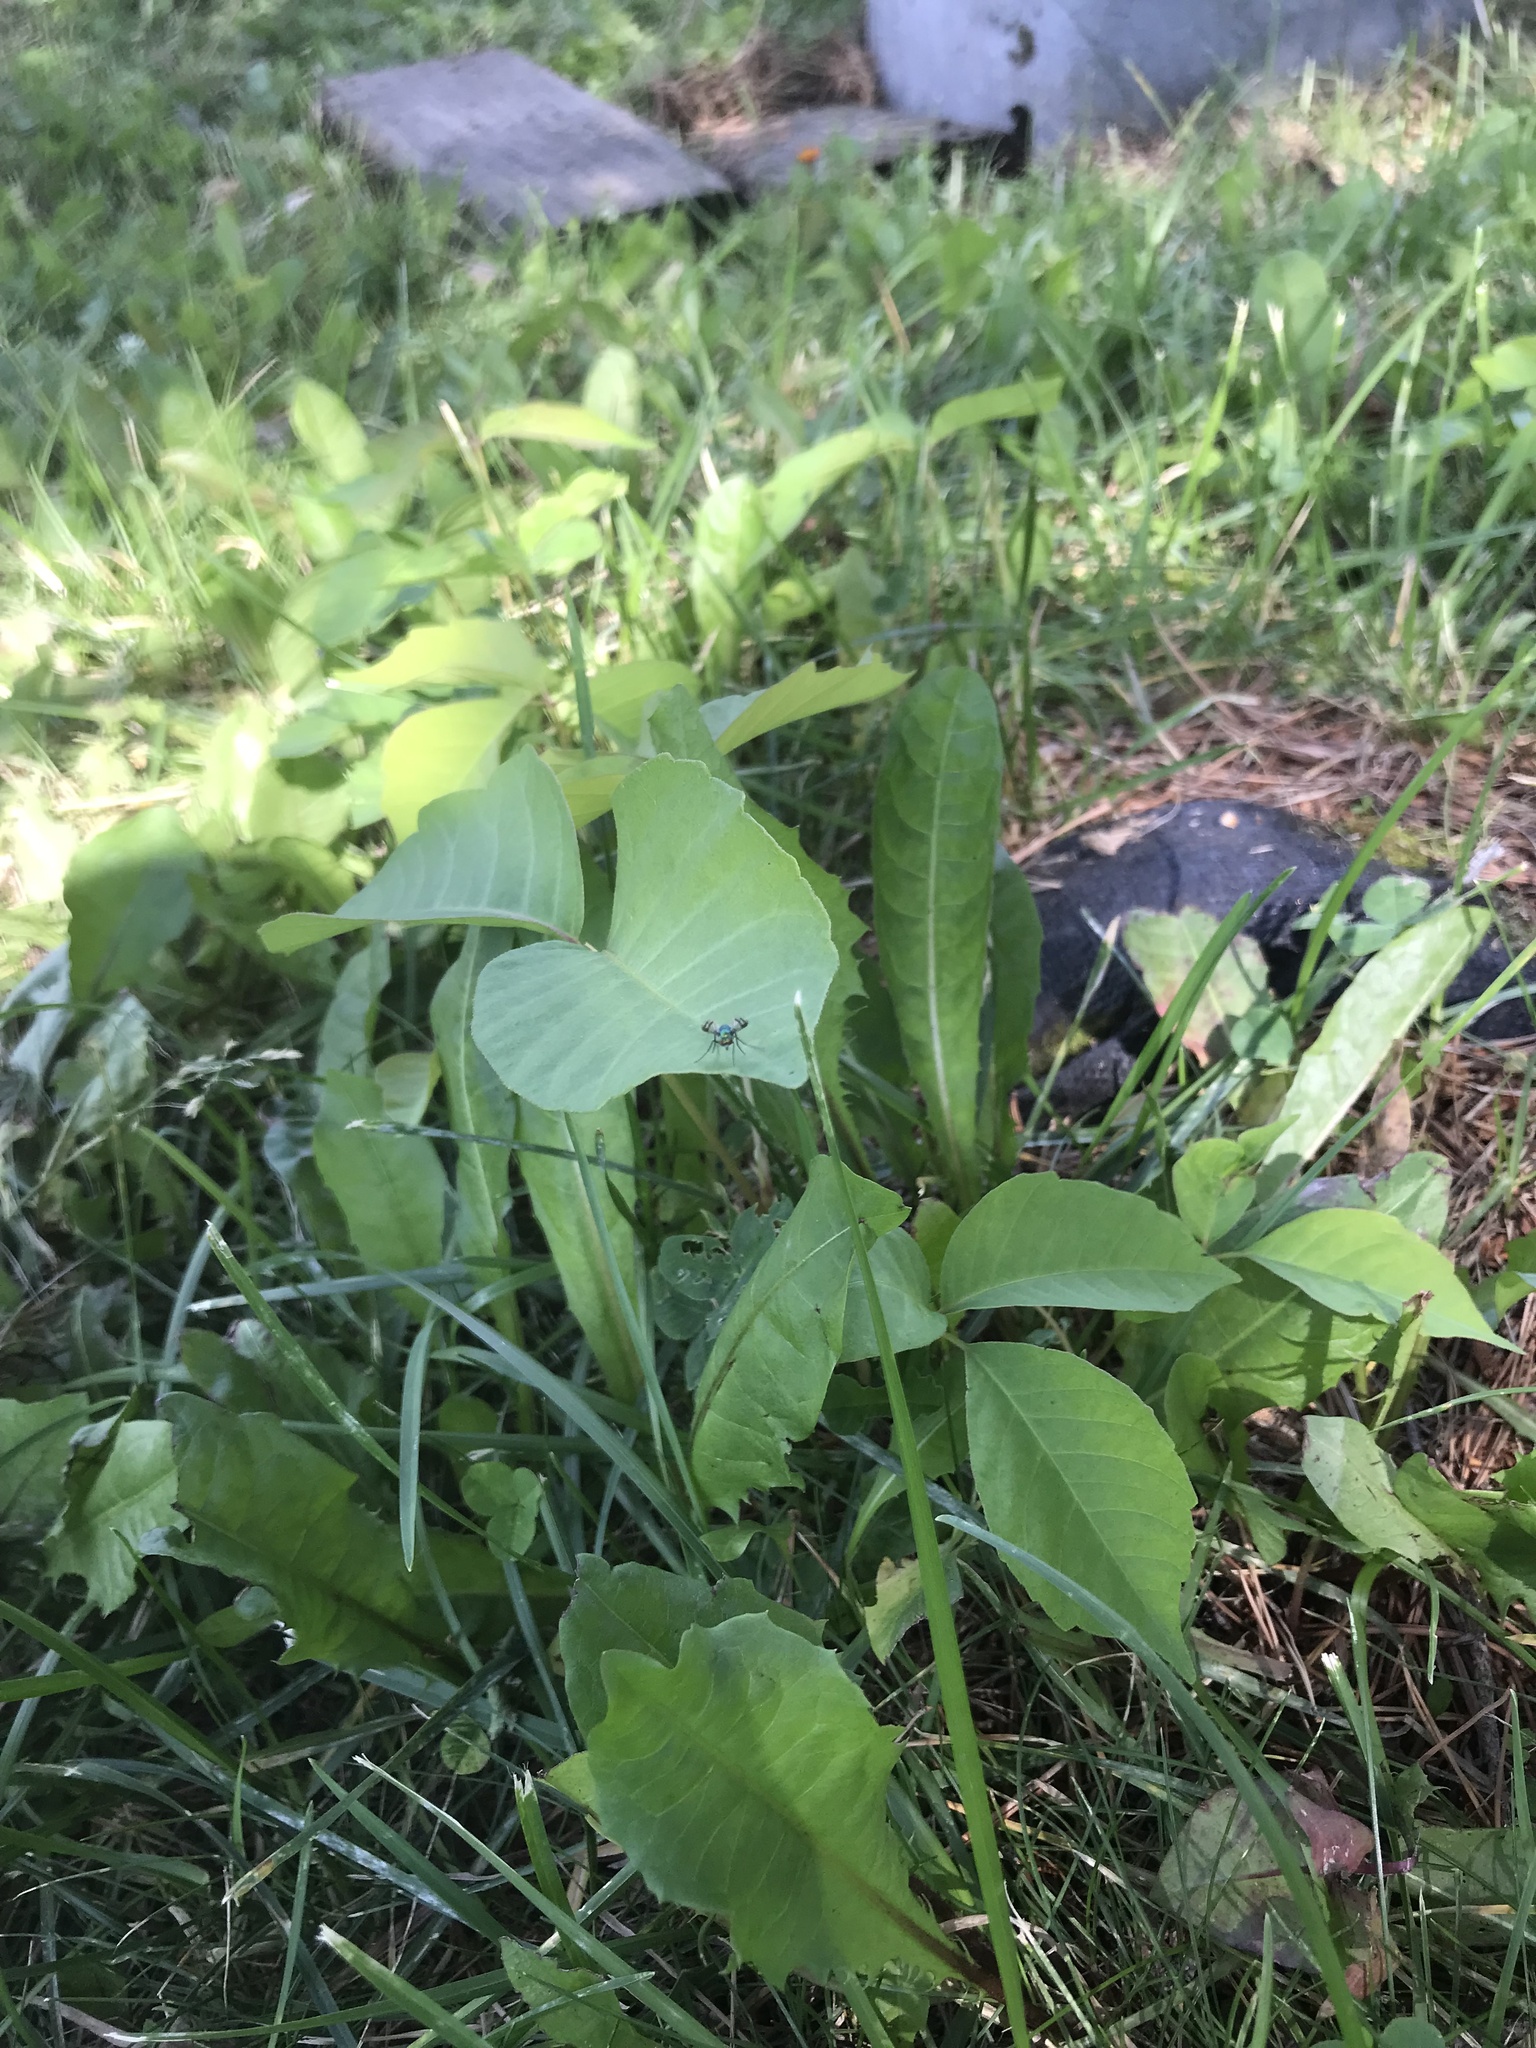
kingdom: Animalia
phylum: Arthropoda
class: Insecta
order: Diptera
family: Dolichopodidae
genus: Condylostylus
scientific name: Condylostylus occidentalis
